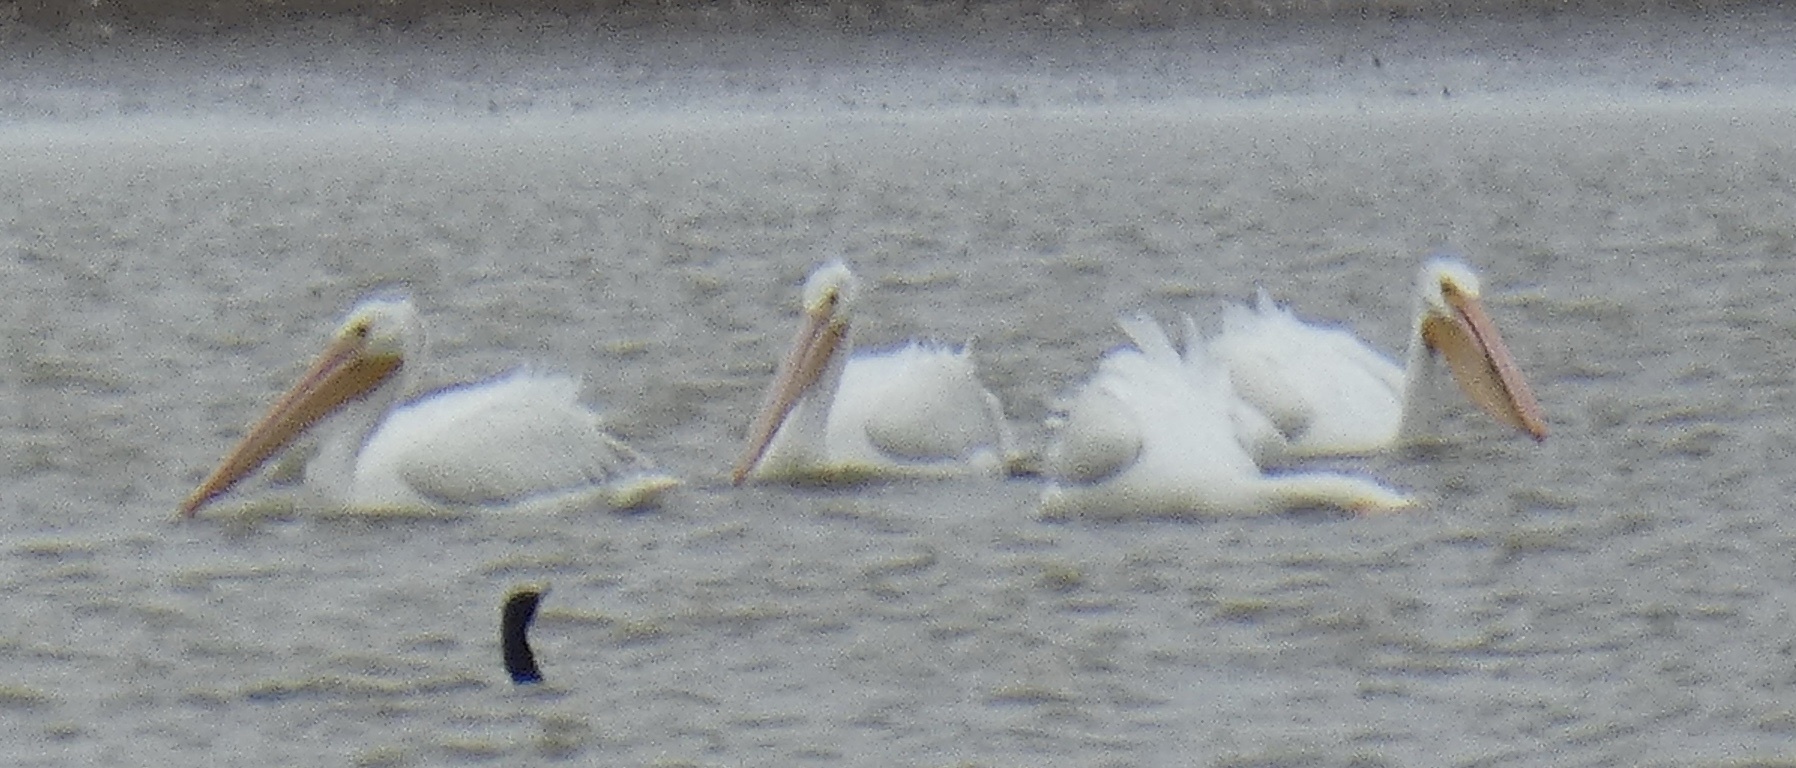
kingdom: Animalia
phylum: Chordata
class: Aves
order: Pelecaniformes
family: Pelecanidae
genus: Pelecanus
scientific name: Pelecanus erythrorhynchos
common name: American white pelican
